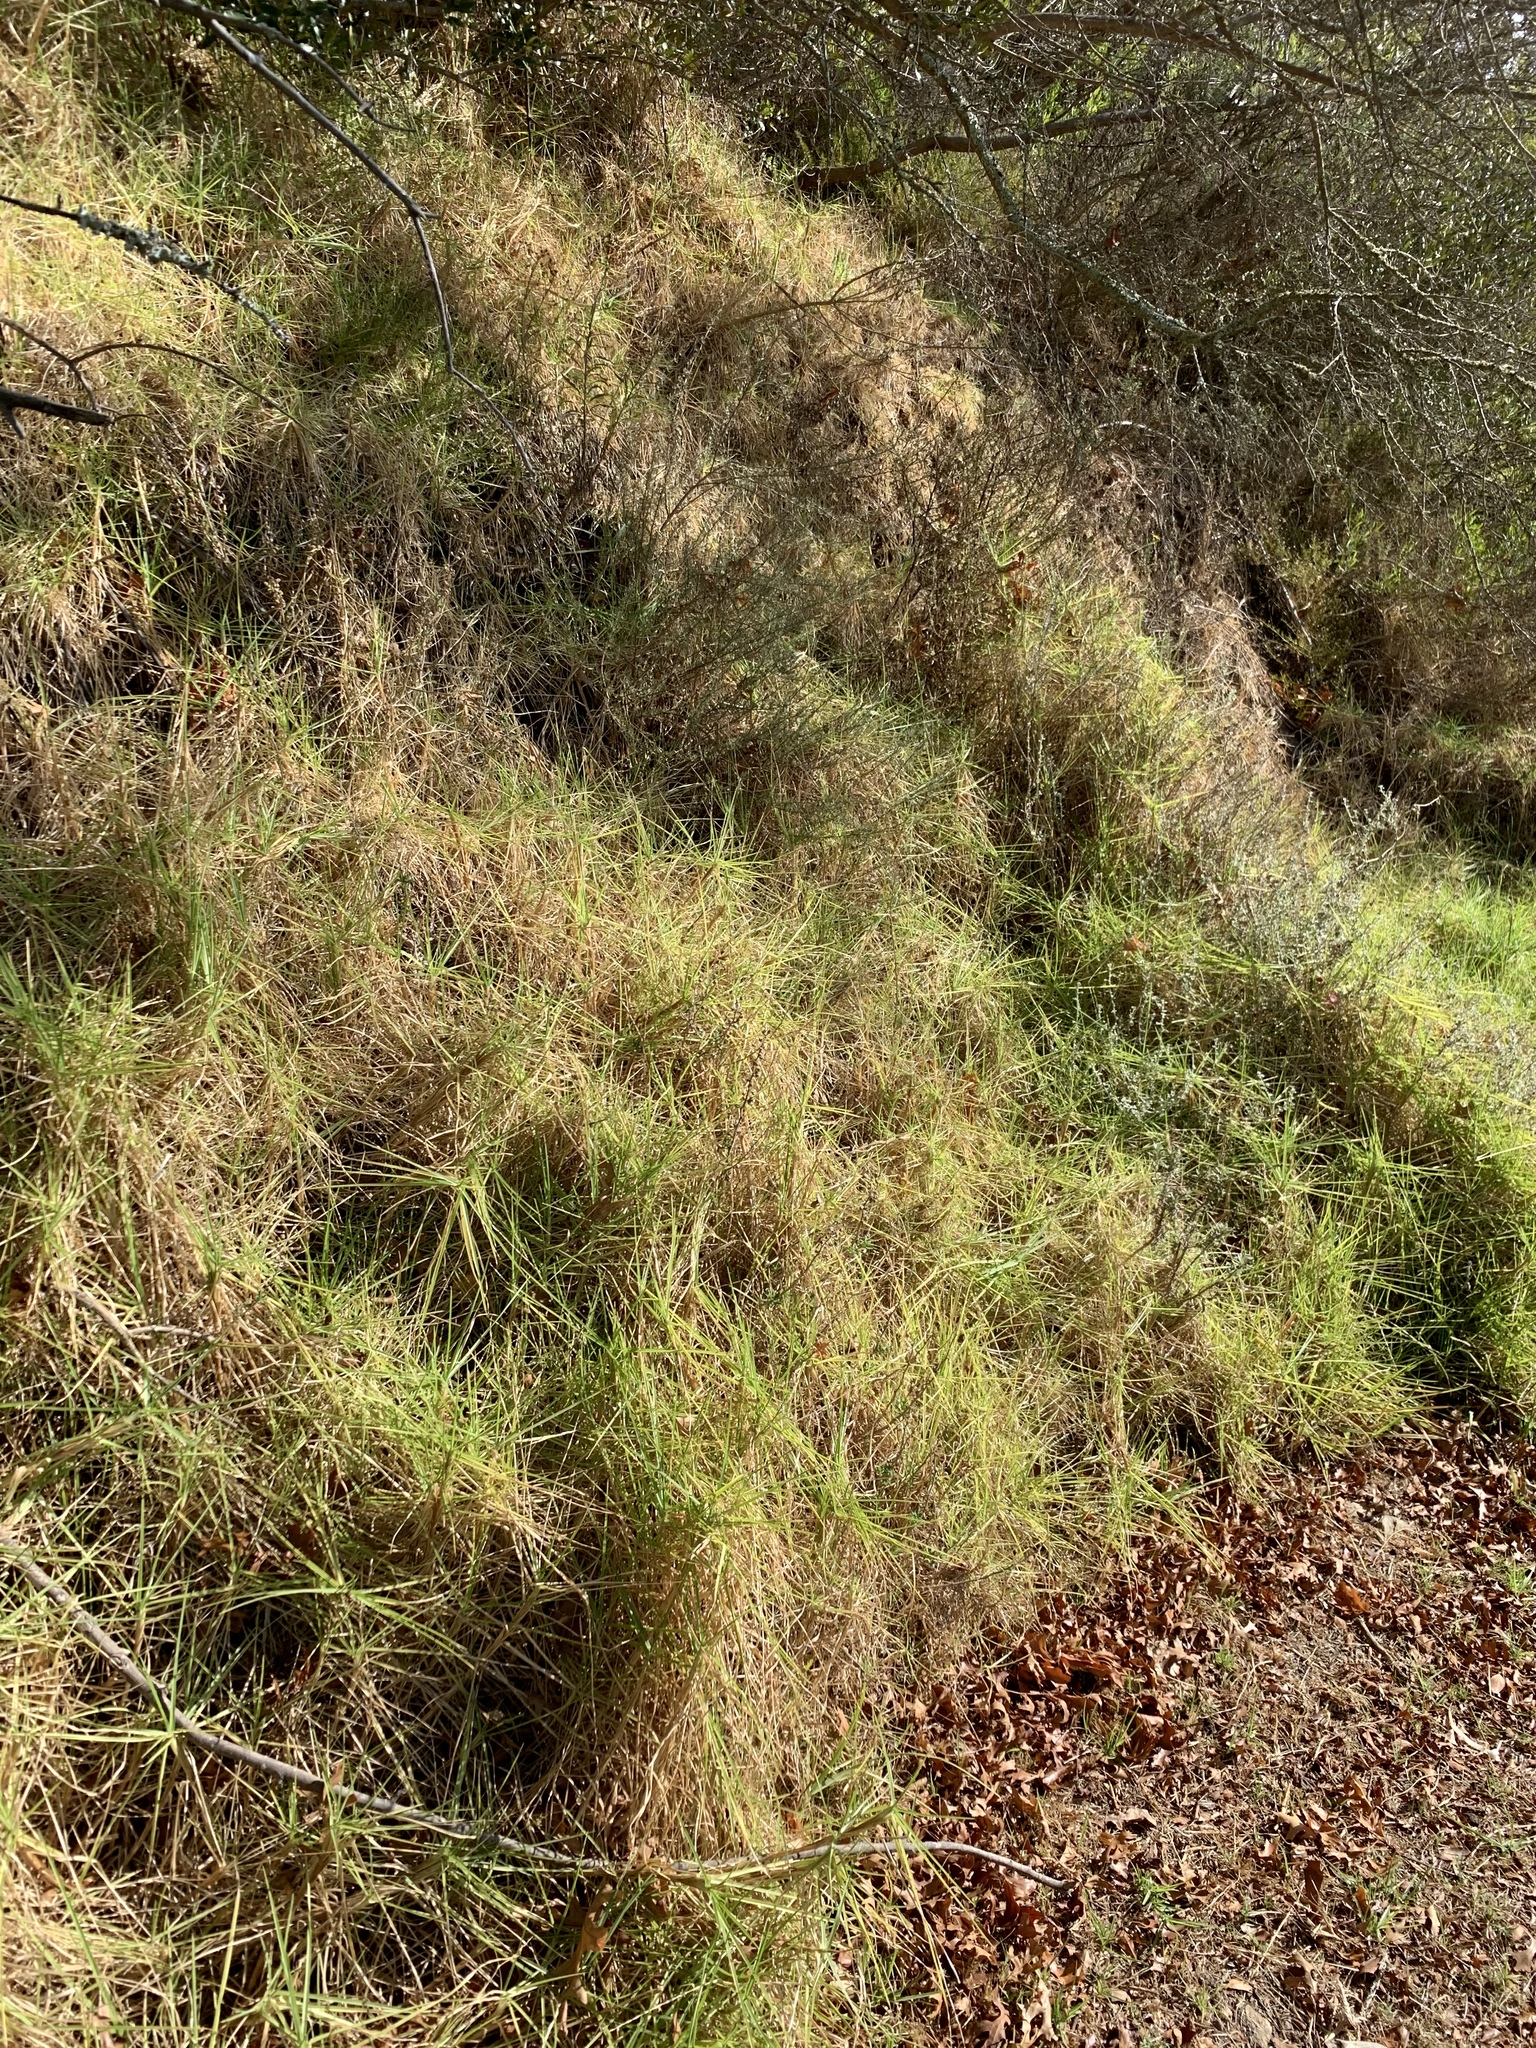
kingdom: Plantae
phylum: Tracheophyta
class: Liliopsida
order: Poales
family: Poaceae
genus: Cenchrus
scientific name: Cenchrus clandestinus
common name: Kikuyugrass
